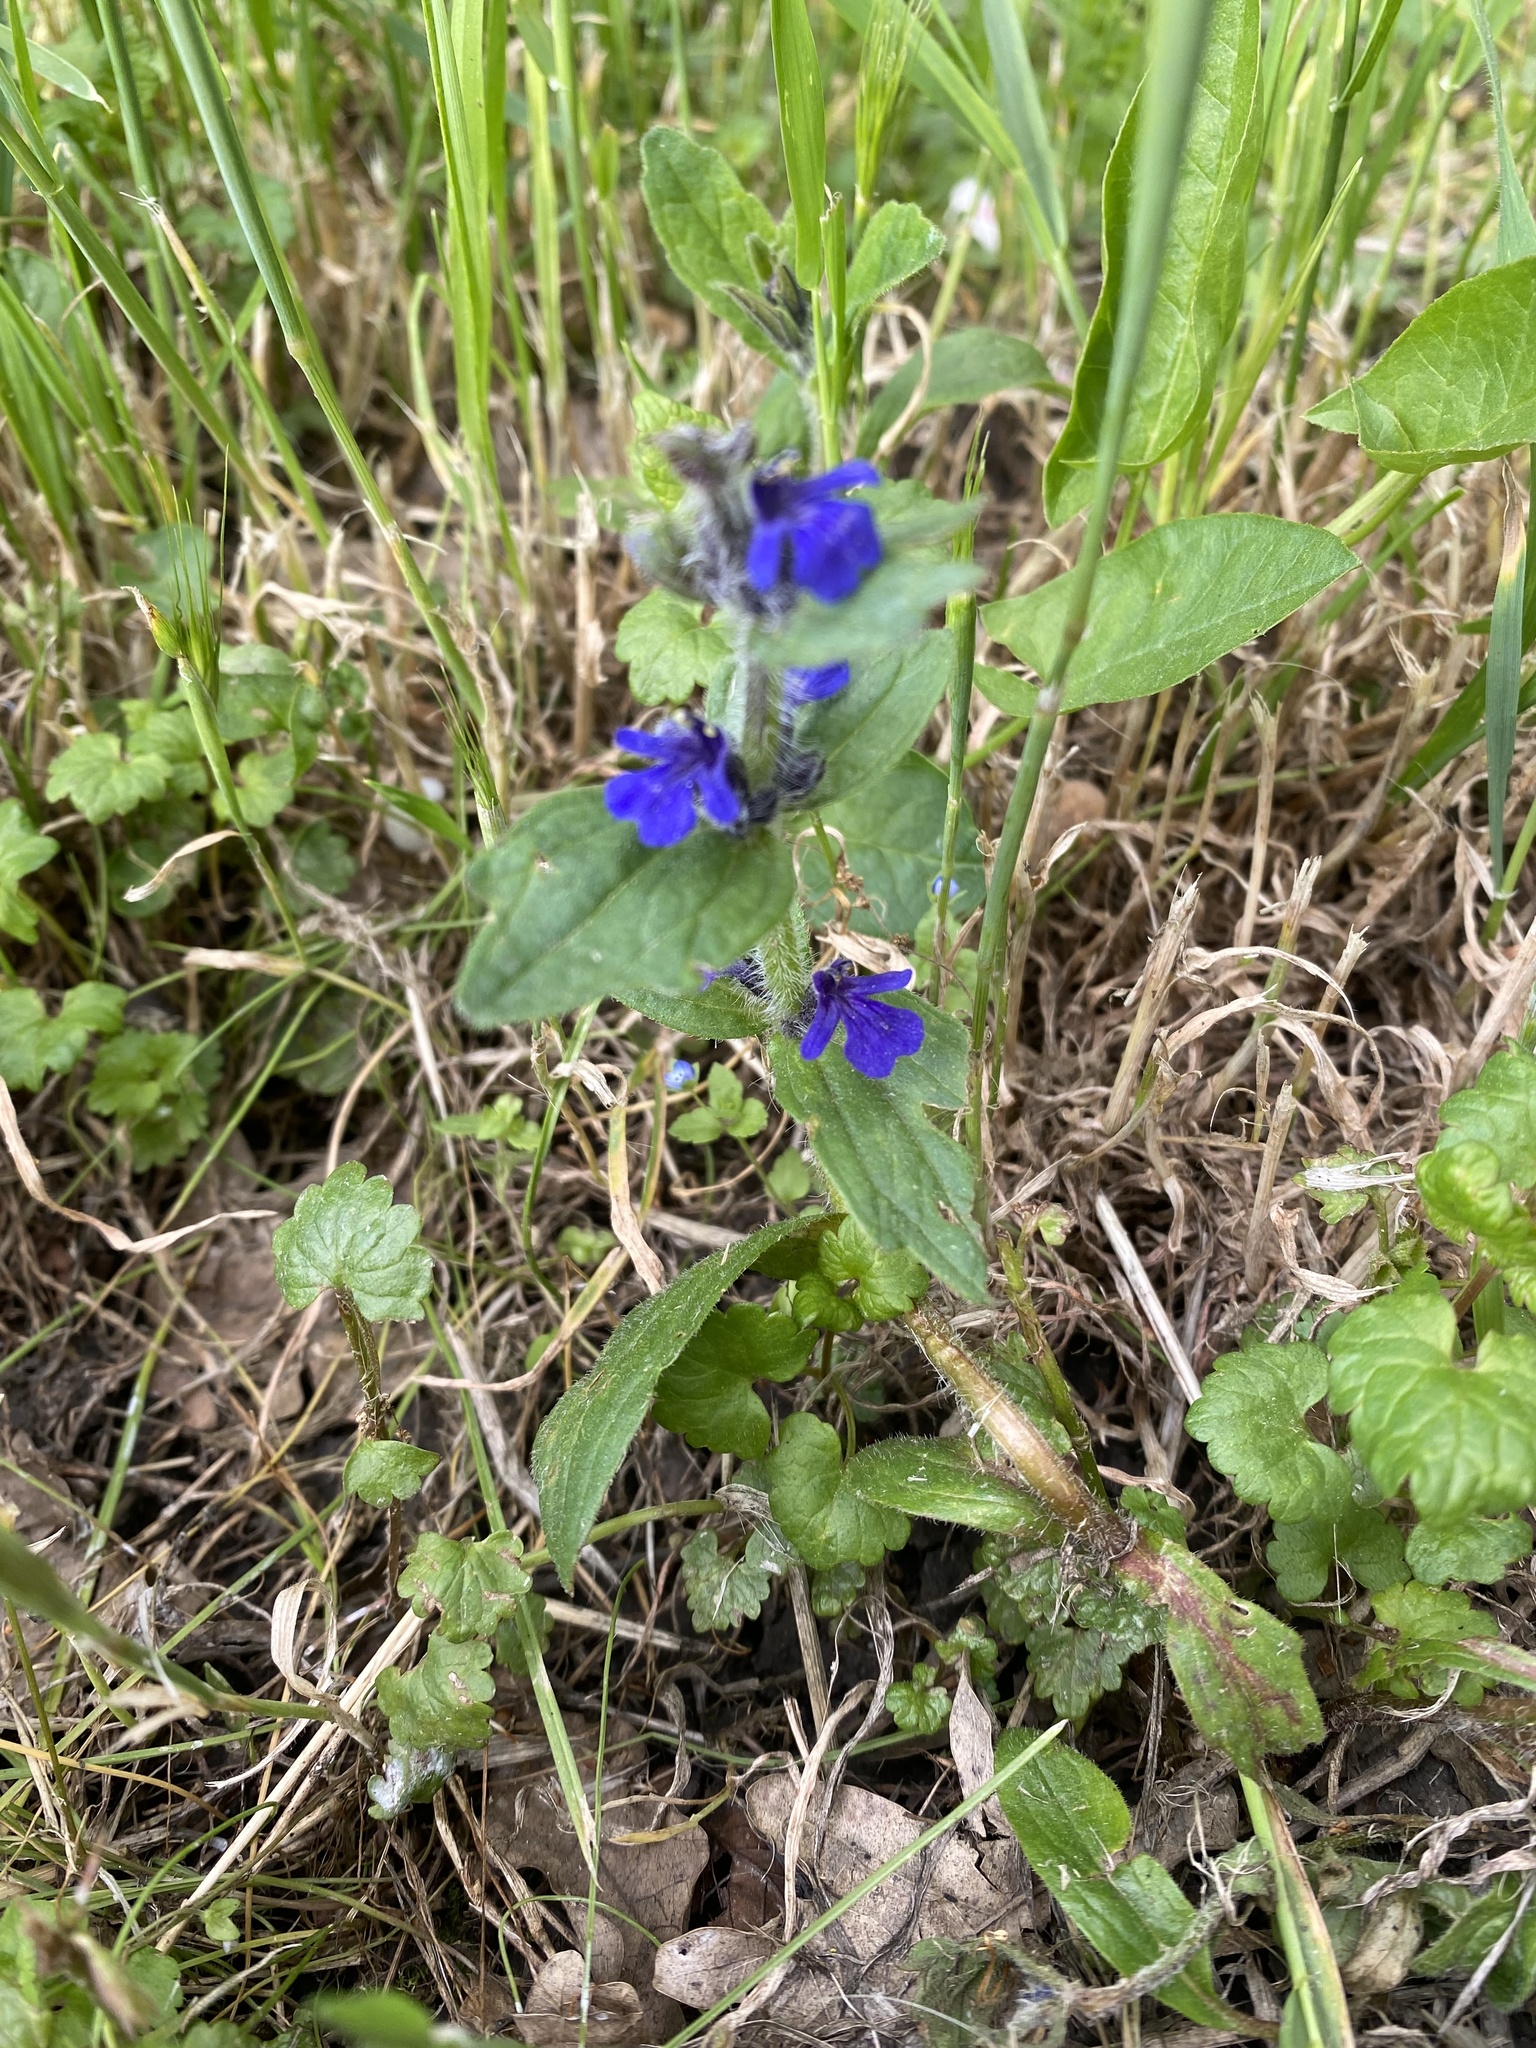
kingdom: Plantae
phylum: Tracheophyta
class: Magnoliopsida
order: Lamiales
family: Lamiaceae
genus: Ajuga
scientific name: Ajuga genevensis
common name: Blue bugle
